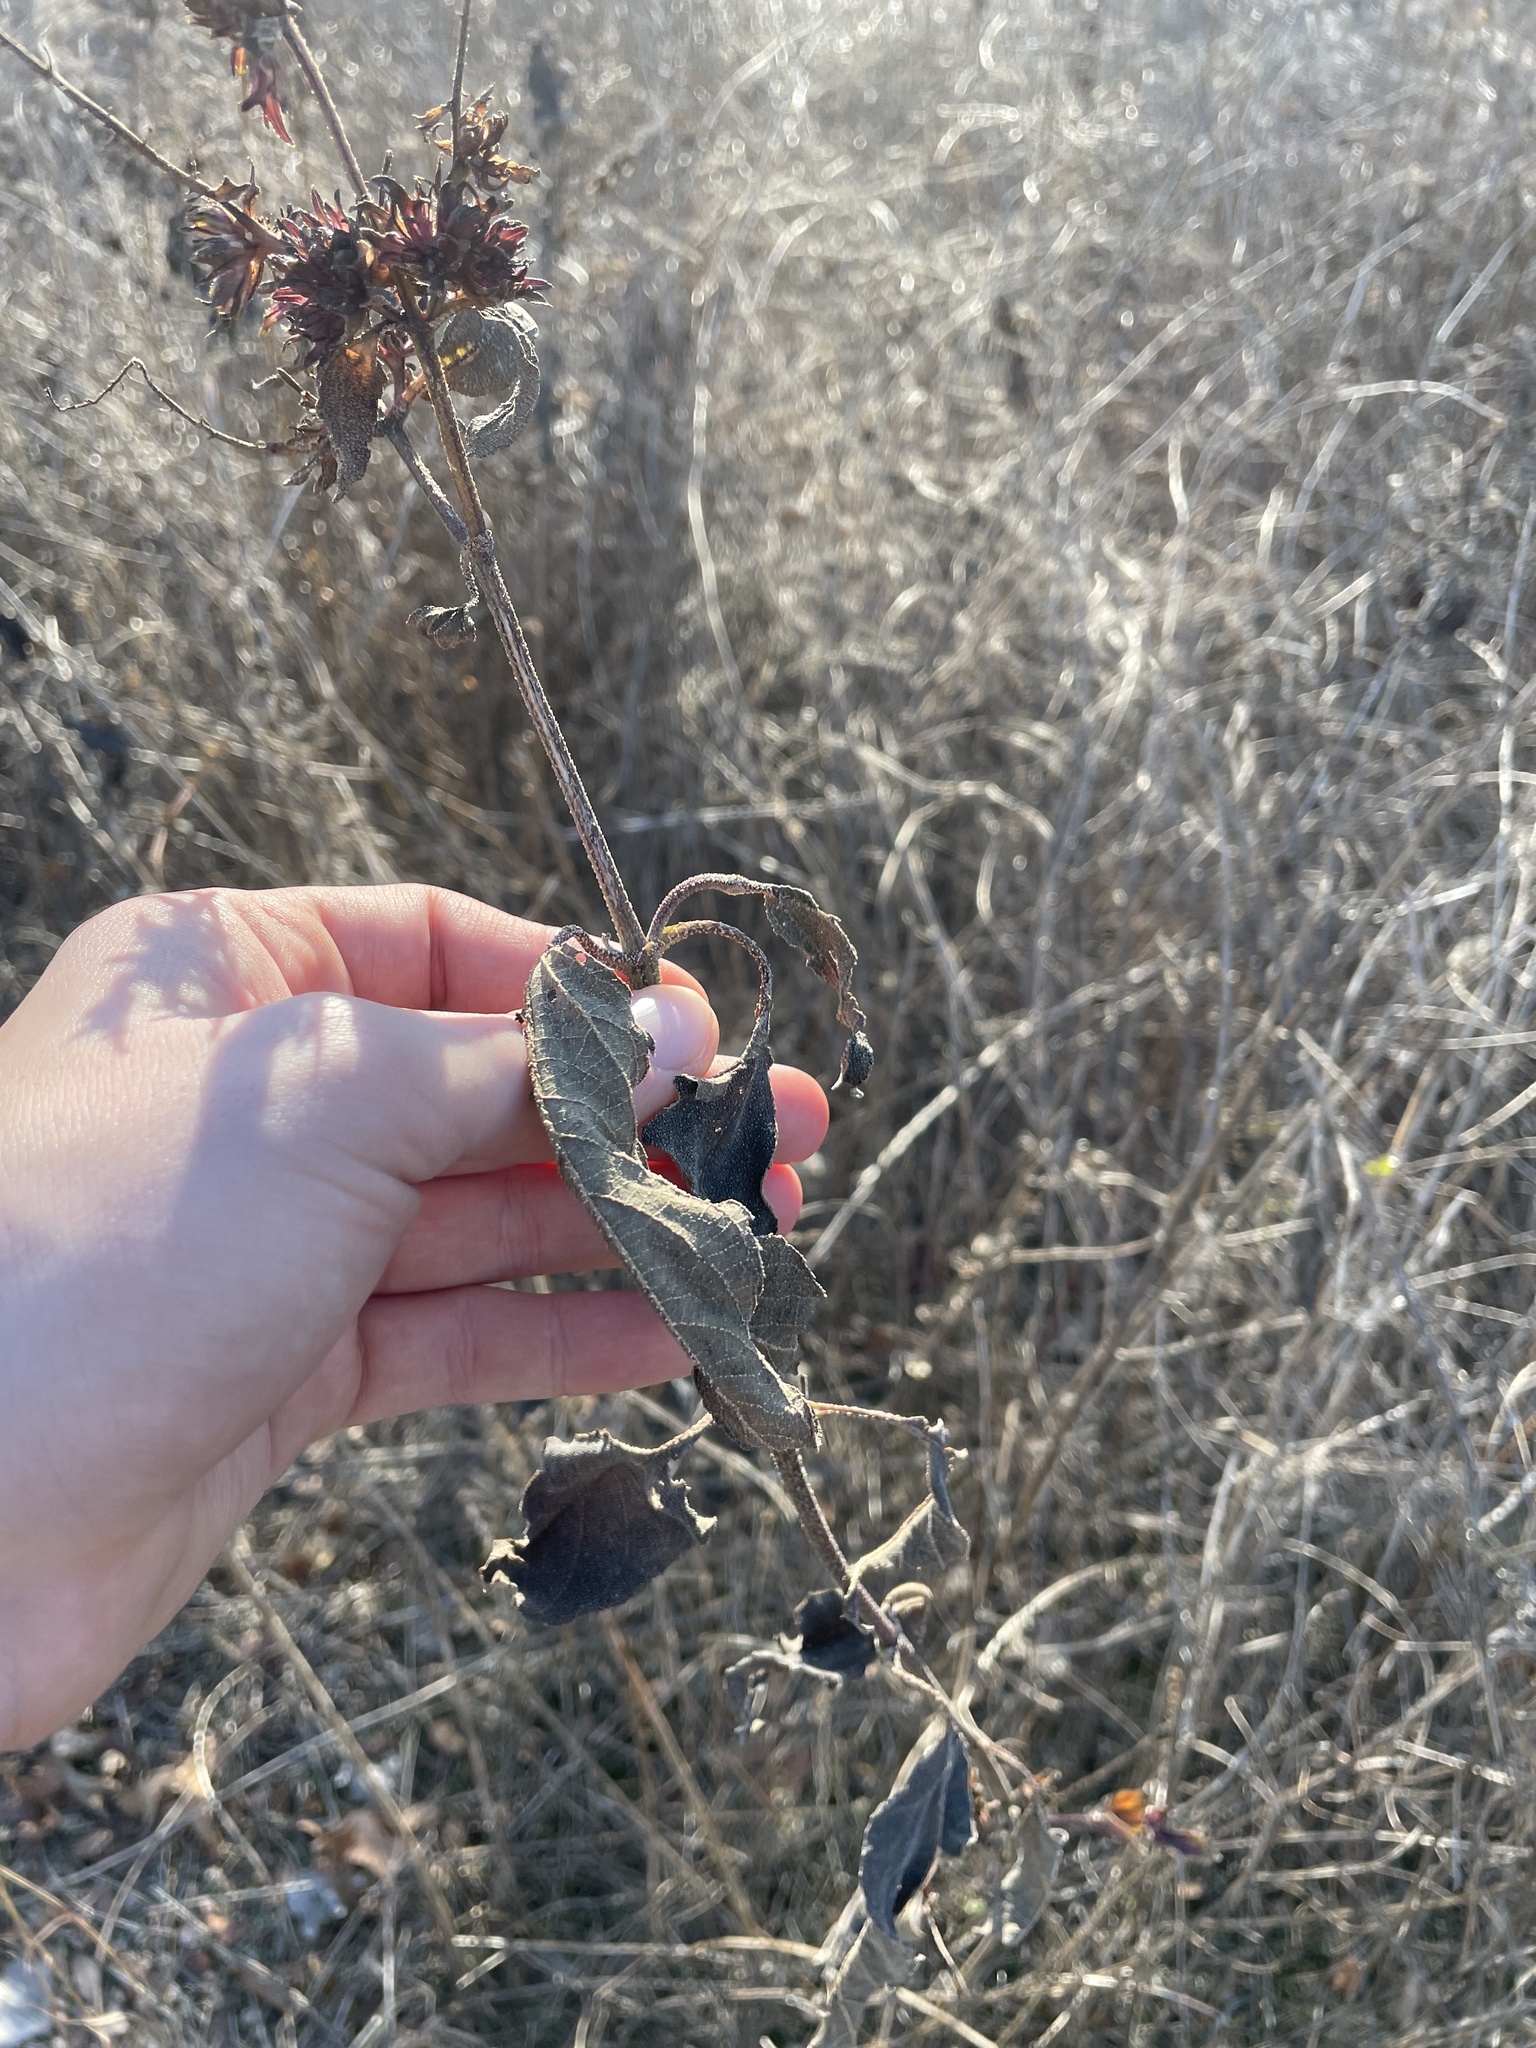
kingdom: Plantae
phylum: Tracheophyta
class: Magnoliopsida
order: Asterales
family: Asteraceae
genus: Ambrosia
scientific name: Ambrosia trifida
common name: Giant ragweed
